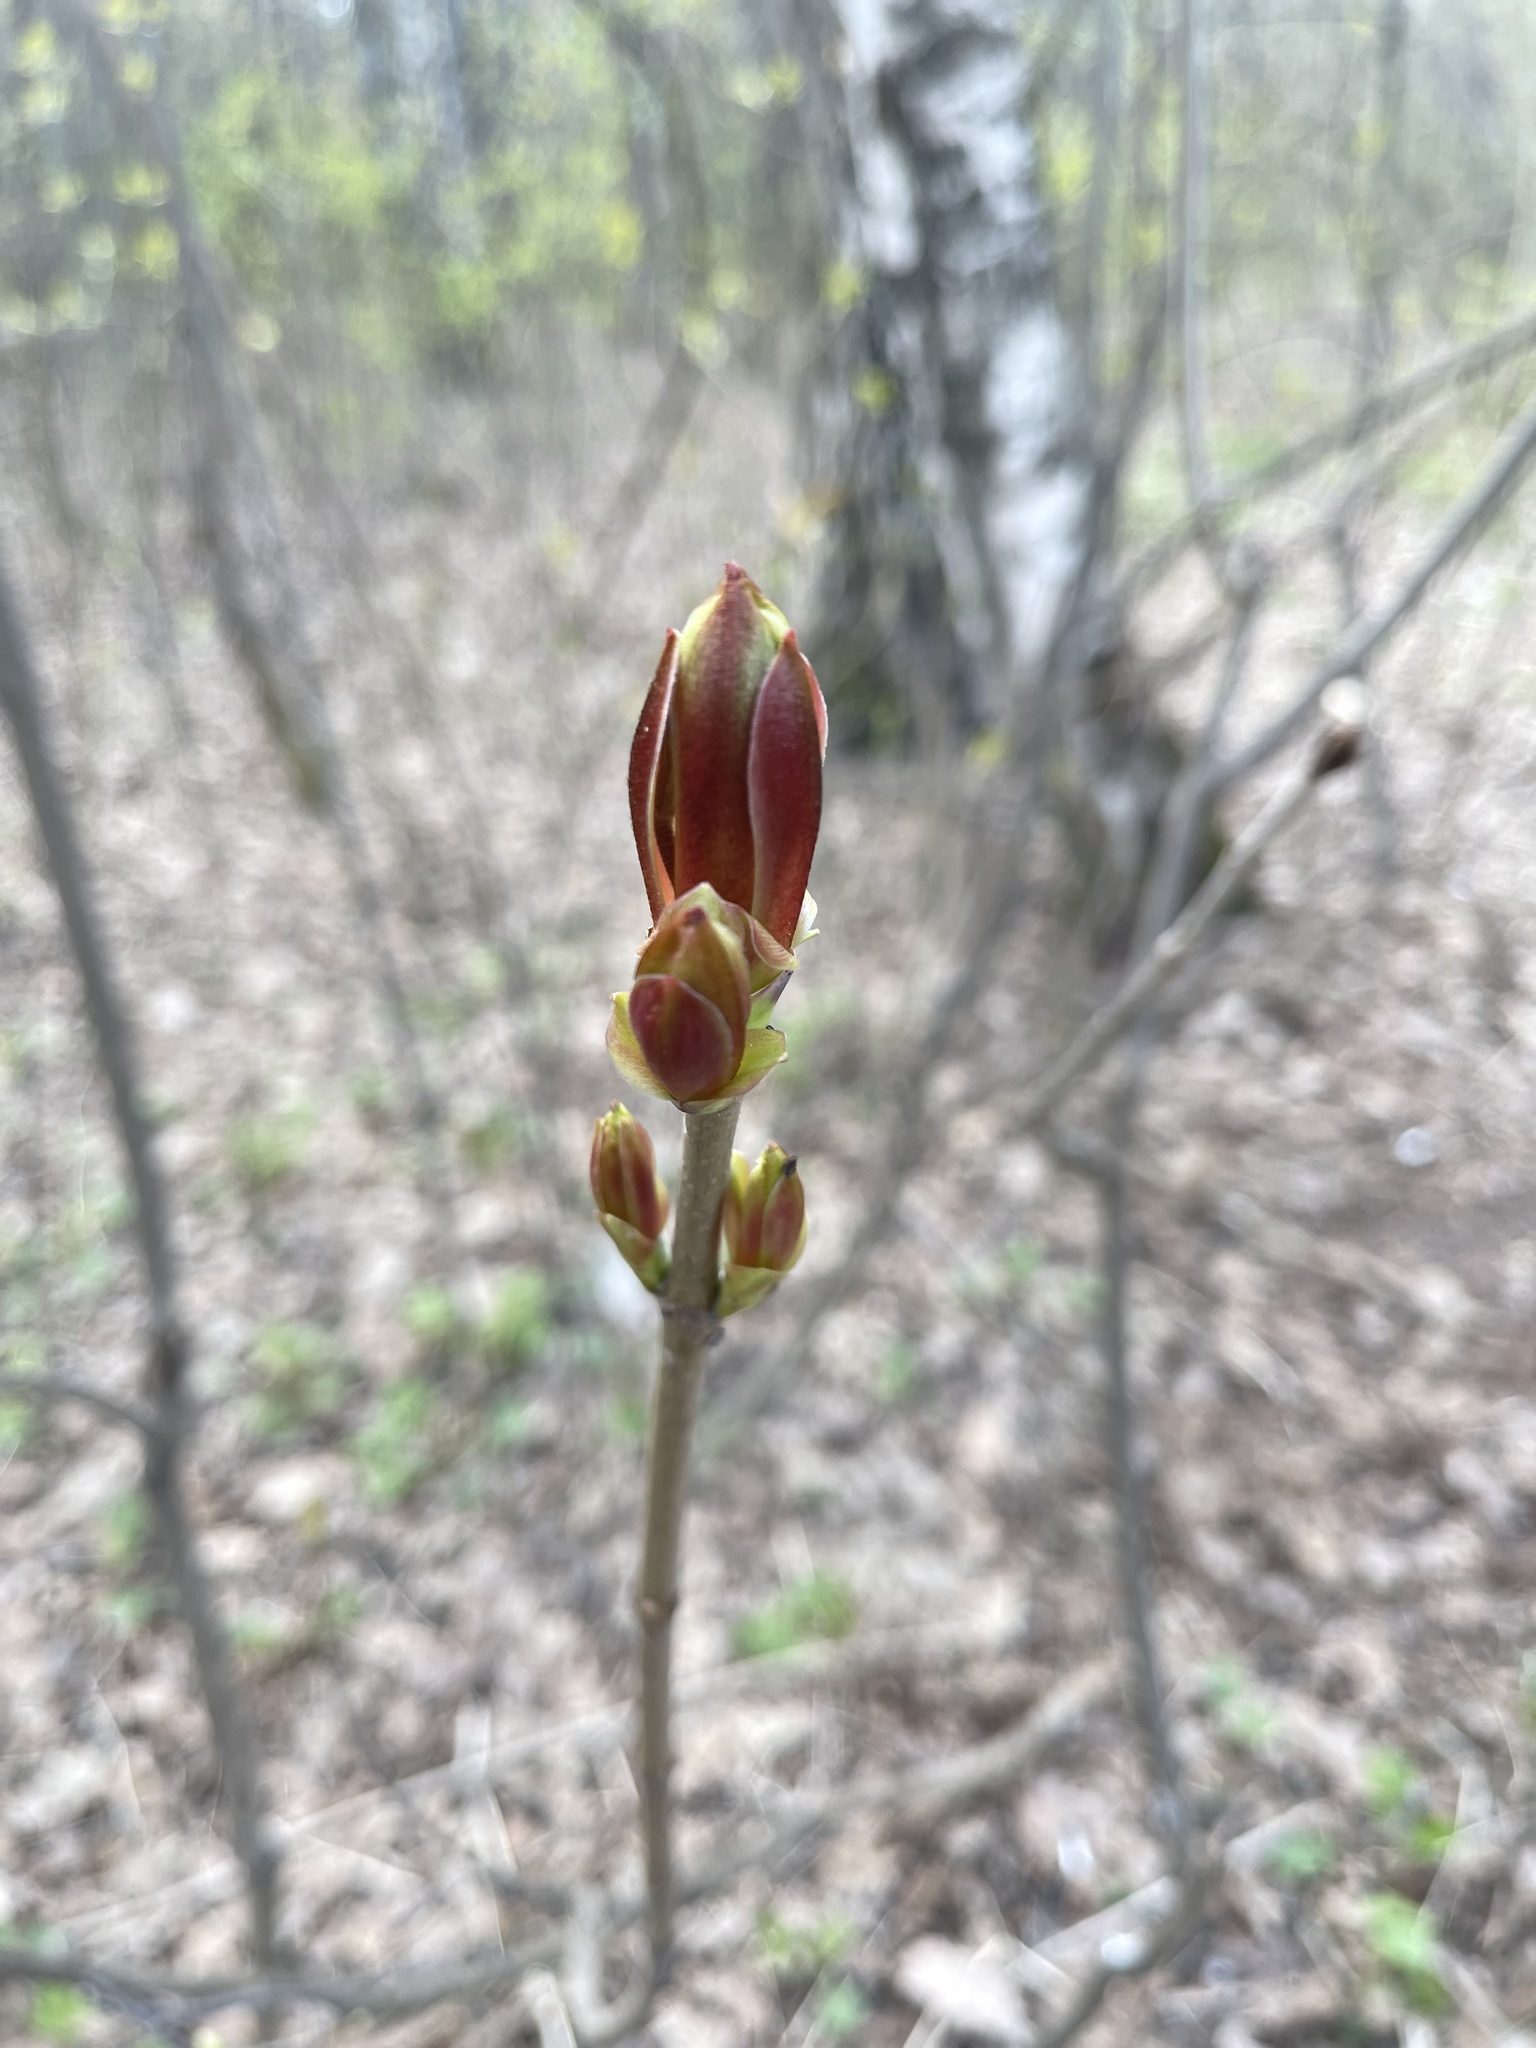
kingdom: Plantae
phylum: Tracheophyta
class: Magnoliopsida
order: Sapindales
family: Sapindaceae
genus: Acer
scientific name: Acer platanoides
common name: Norway maple
